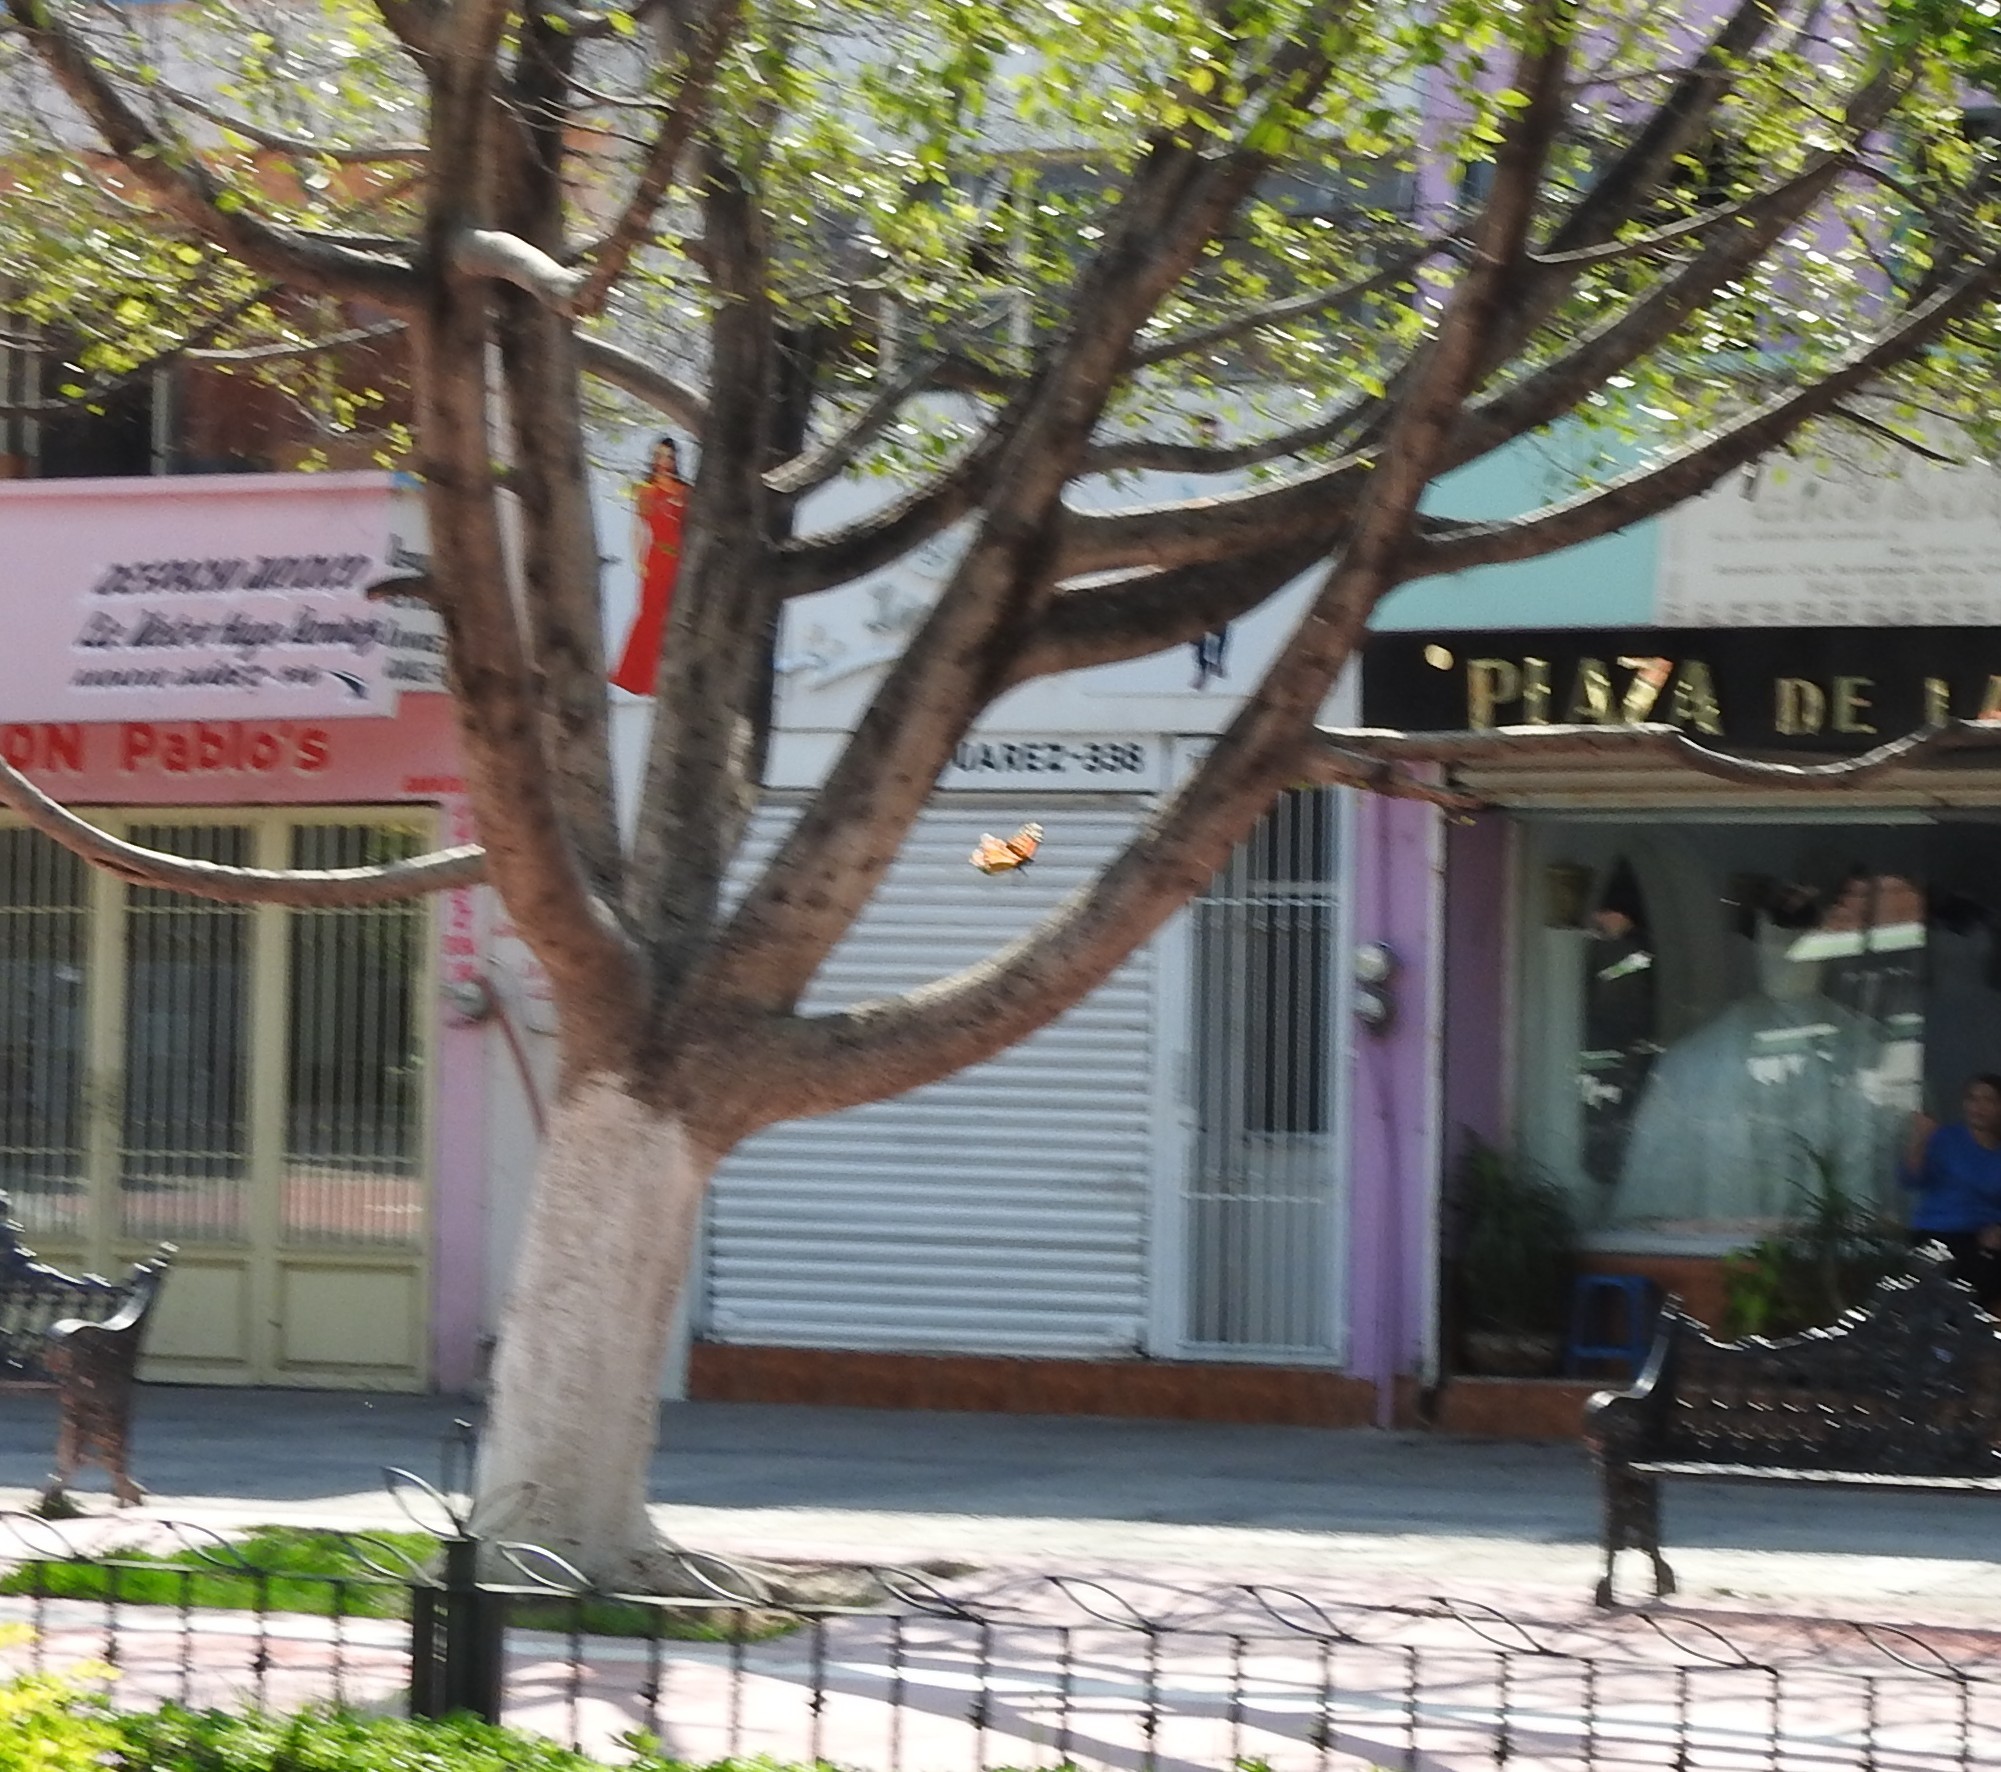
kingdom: Animalia
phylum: Arthropoda
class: Insecta
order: Lepidoptera
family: Nymphalidae
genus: Danaus
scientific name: Danaus plexippus
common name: Monarch
